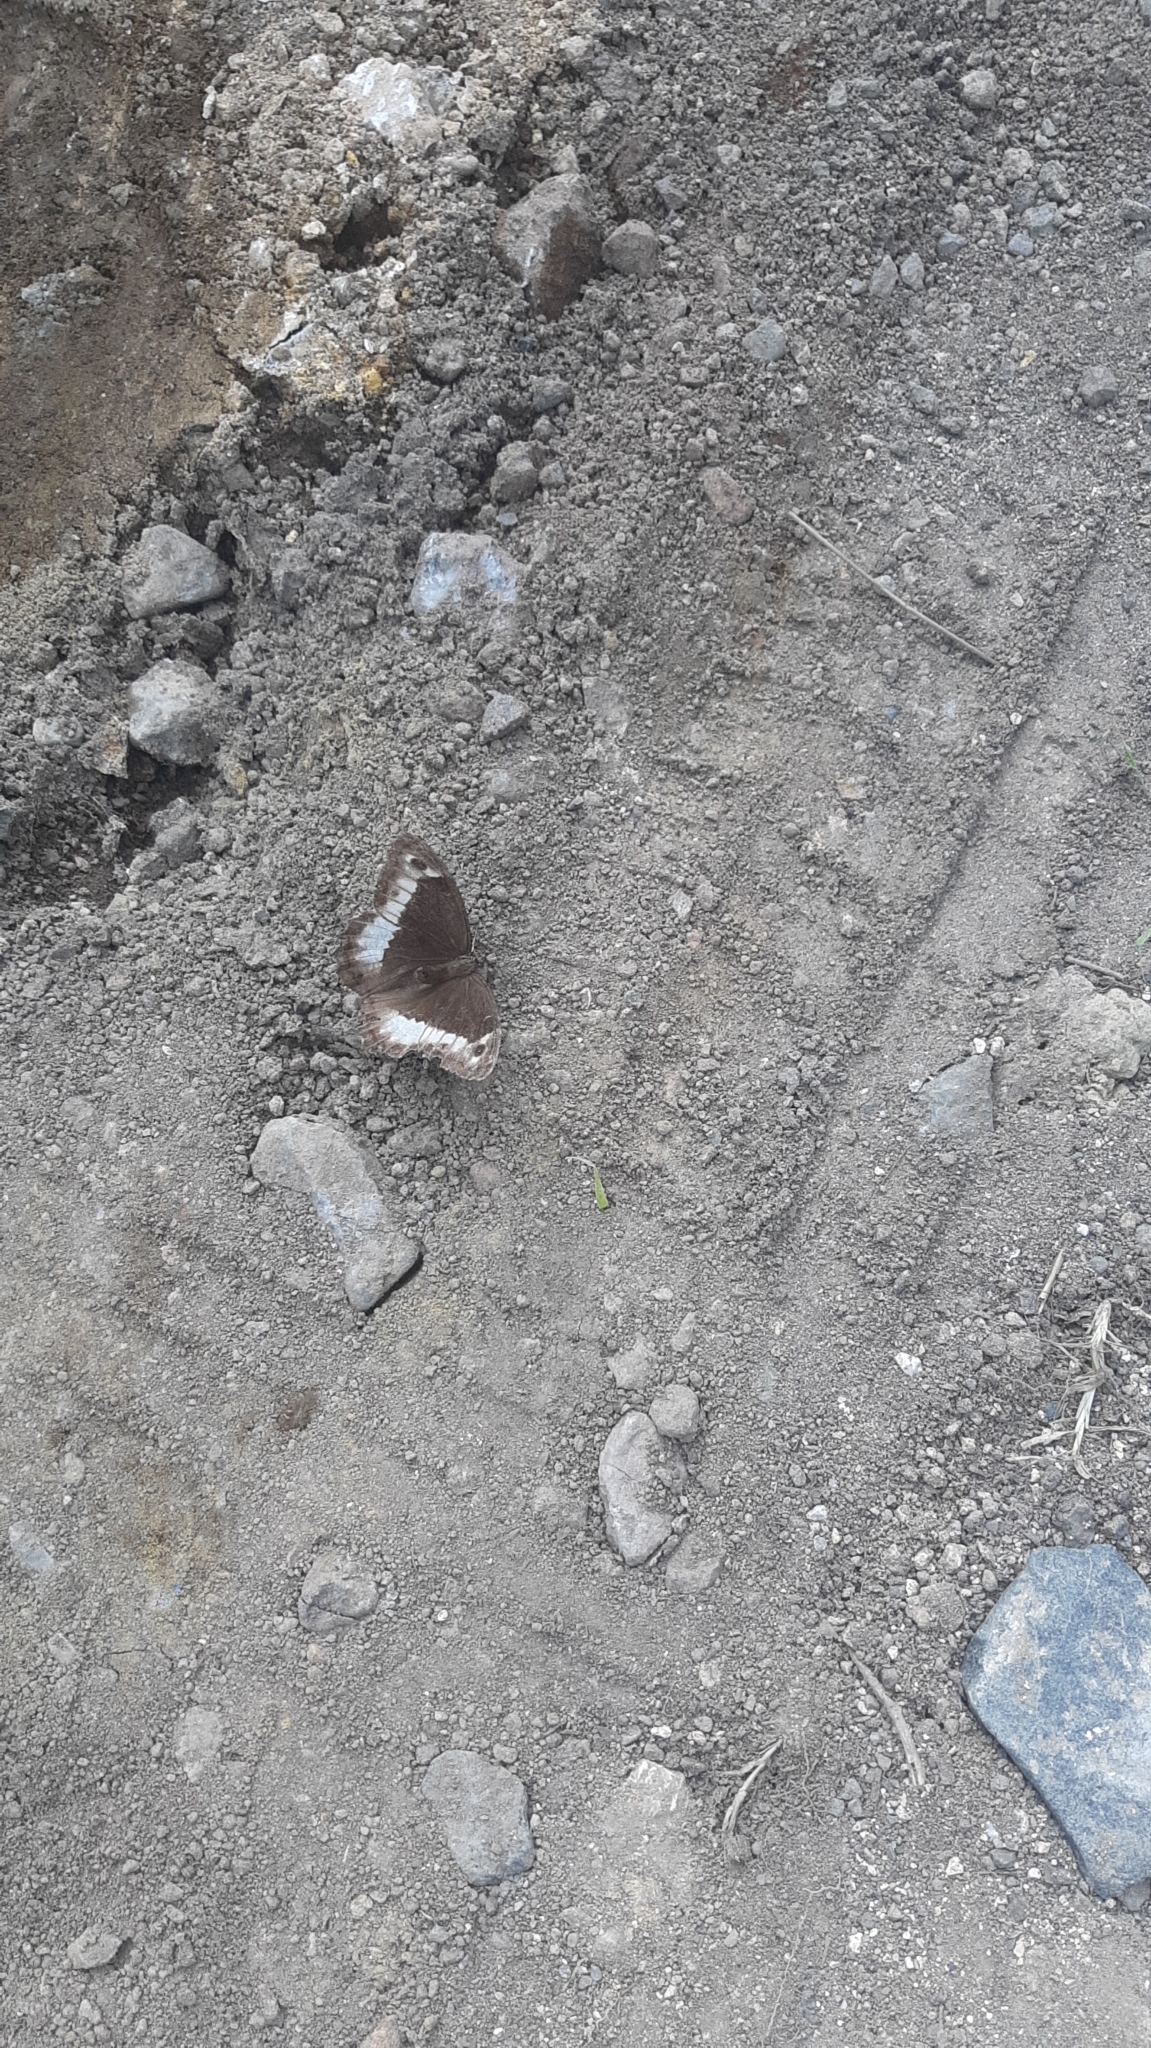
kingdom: Animalia
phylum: Arthropoda
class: Insecta
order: Lepidoptera
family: Nymphalidae
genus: Hipparchia
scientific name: Hipparchia fagi
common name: Woodland grayling
